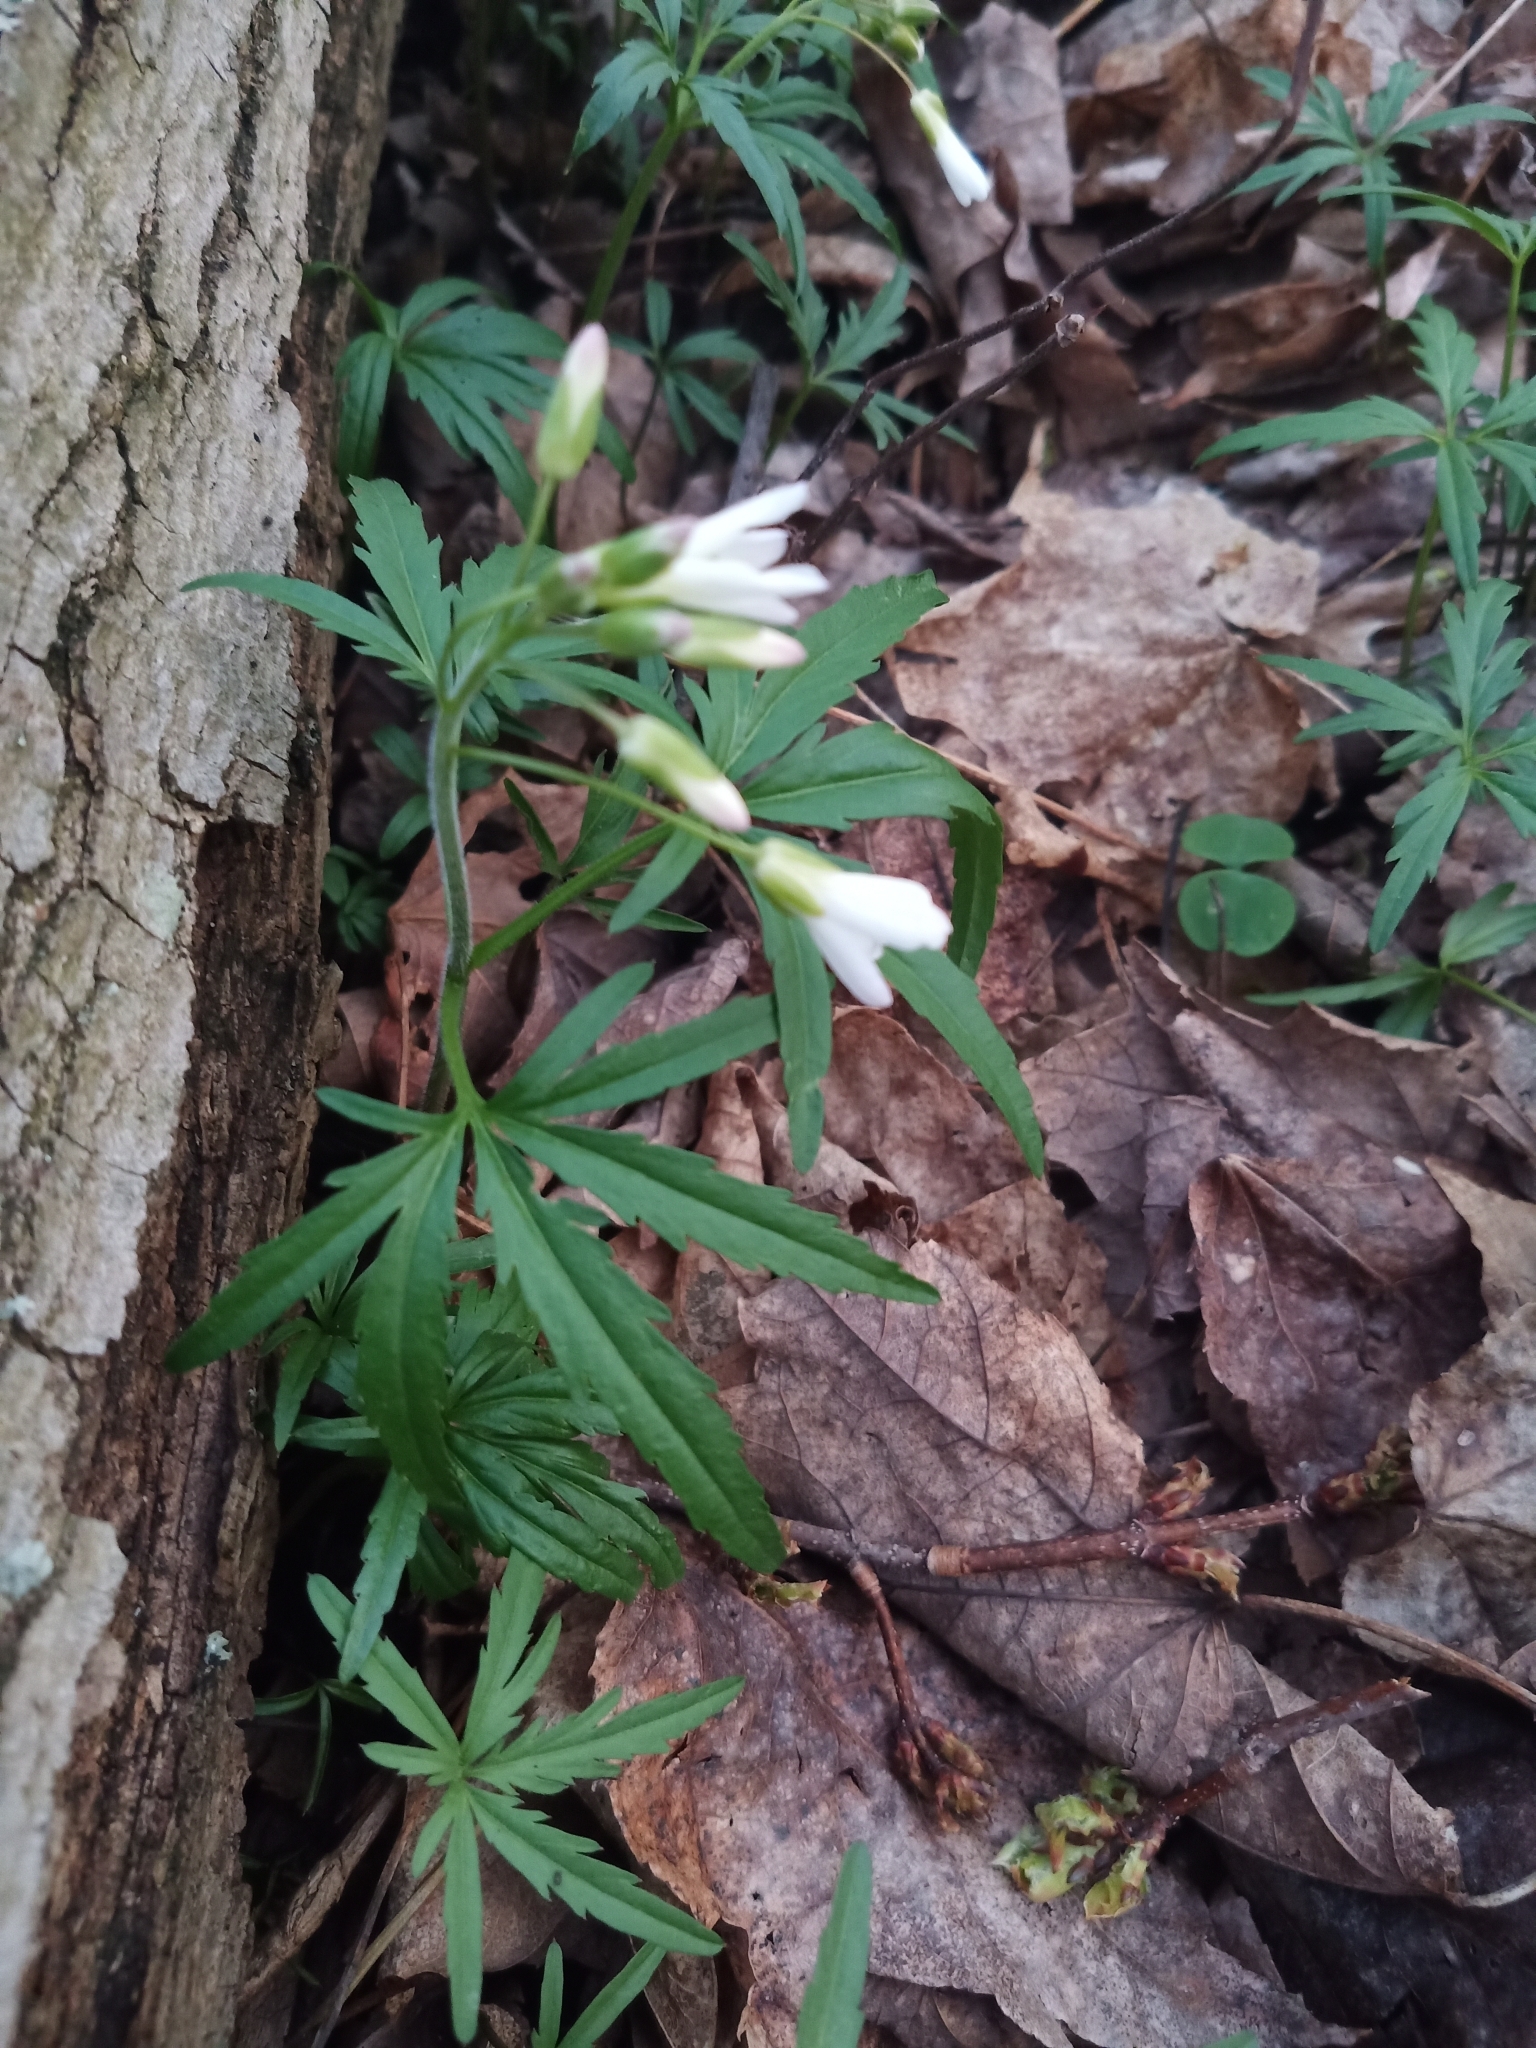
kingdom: Plantae
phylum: Tracheophyta
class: Magnoliopsida
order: Brassicales
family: Brassicaceae
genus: Cardamine
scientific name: Cardamine concatenata
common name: Cut-leaf toothcup
